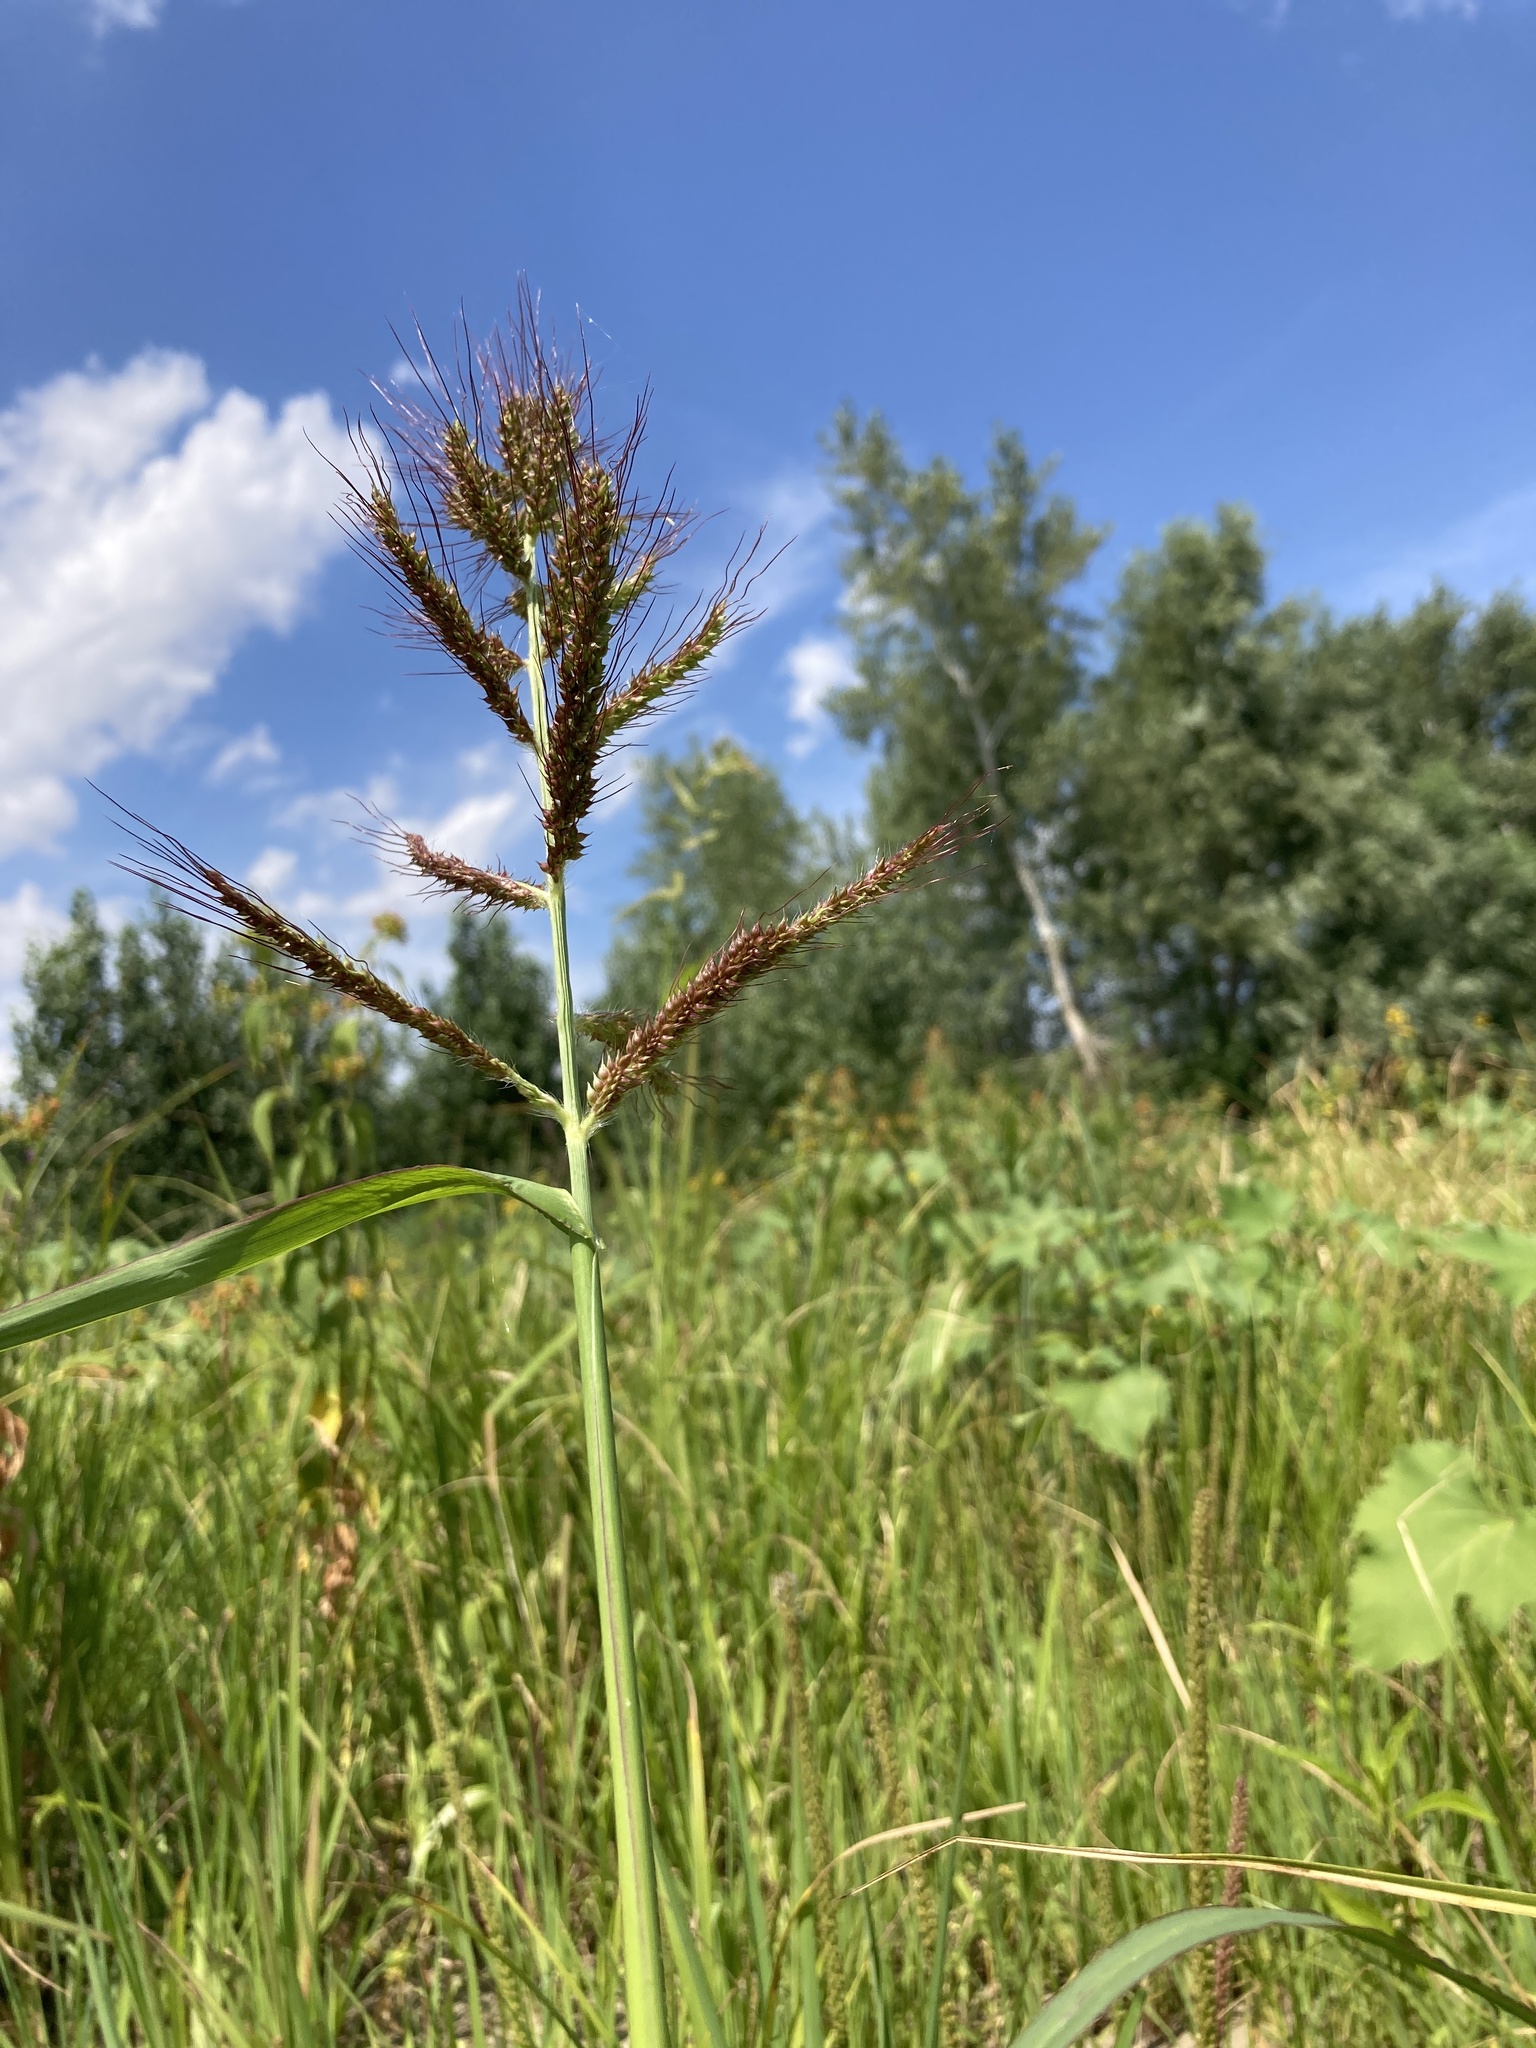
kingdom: Plantae
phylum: Tracheophyta
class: Liliopsida
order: Poales
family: Poaceae
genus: Echinochloa
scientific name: Echinochloa crus-galli
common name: Cockspur
